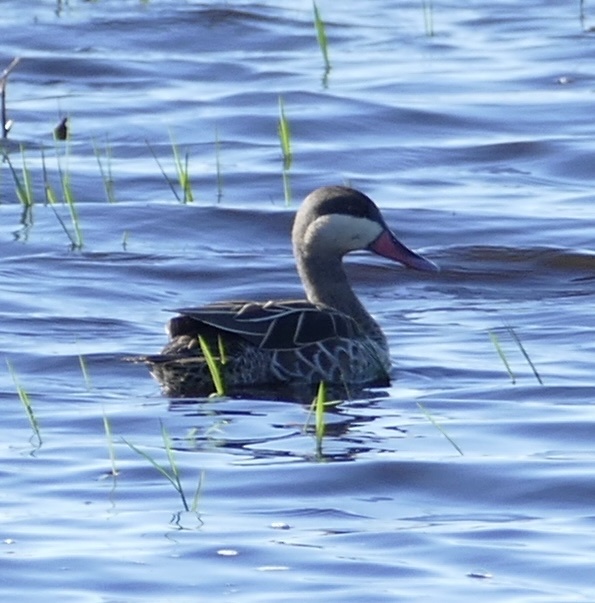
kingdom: Animalia
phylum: Chordata
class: Aves
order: Anseriformes
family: Anatidae
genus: Anas
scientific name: Anas erythrorhyncha
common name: Red-billed teal
